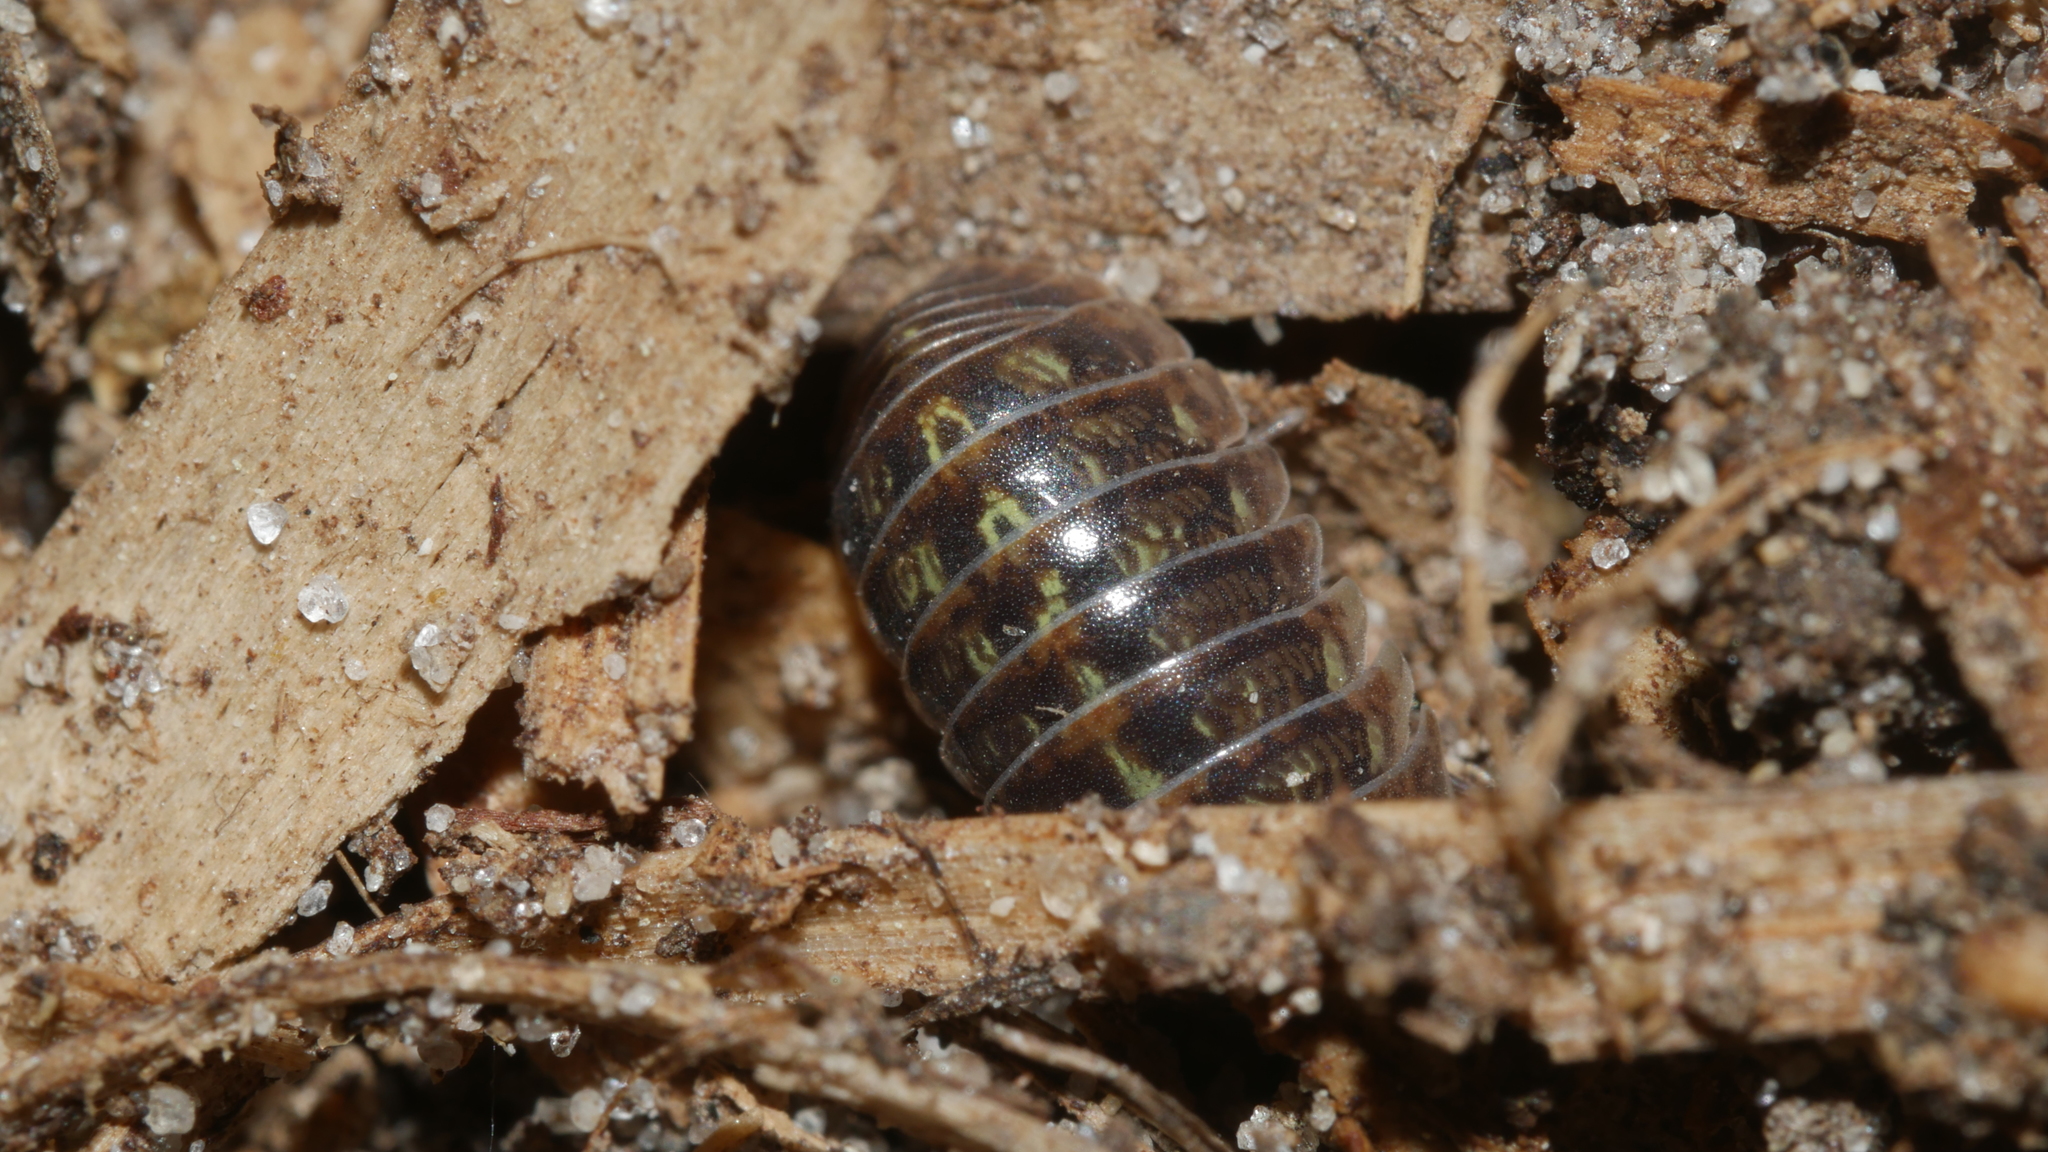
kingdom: Animalia
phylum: Arthropoda
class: Malacostraca
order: Isopoda
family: Armadillidiidae
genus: Armadillidium
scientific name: Armadillidium vulgare
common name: Common pill woodlouse
